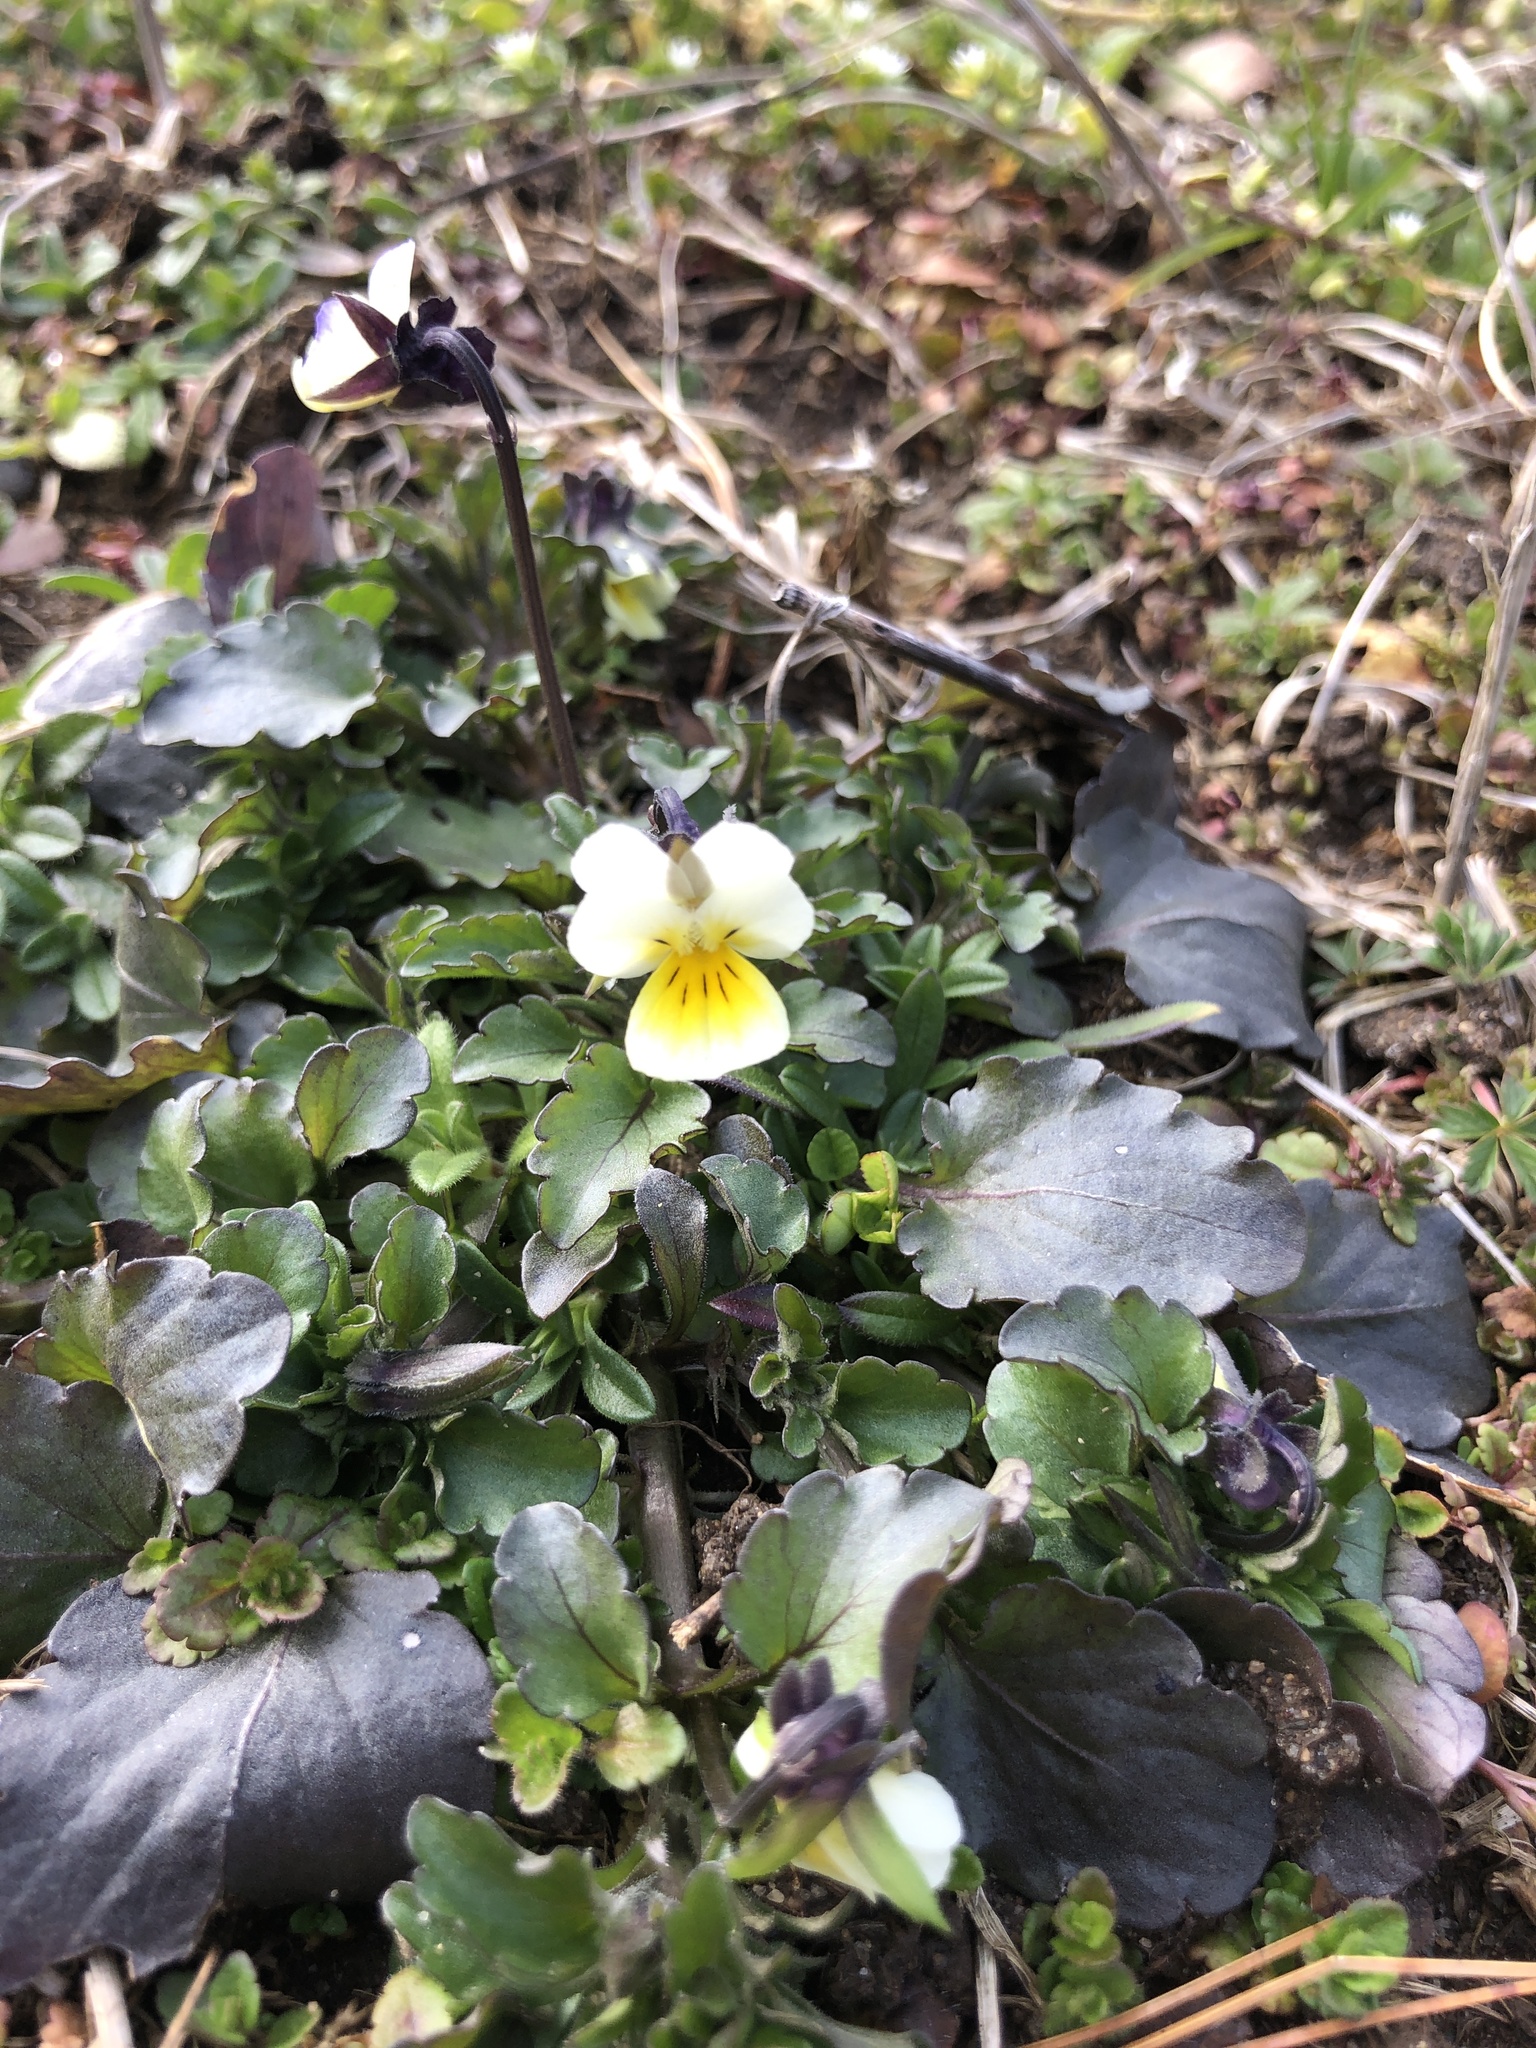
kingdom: Plantae
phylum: Tracheophyta
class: Magnoliopsida
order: Malpighiales
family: Violaceae
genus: Viola
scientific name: Viola arvensis
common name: Field pansy
